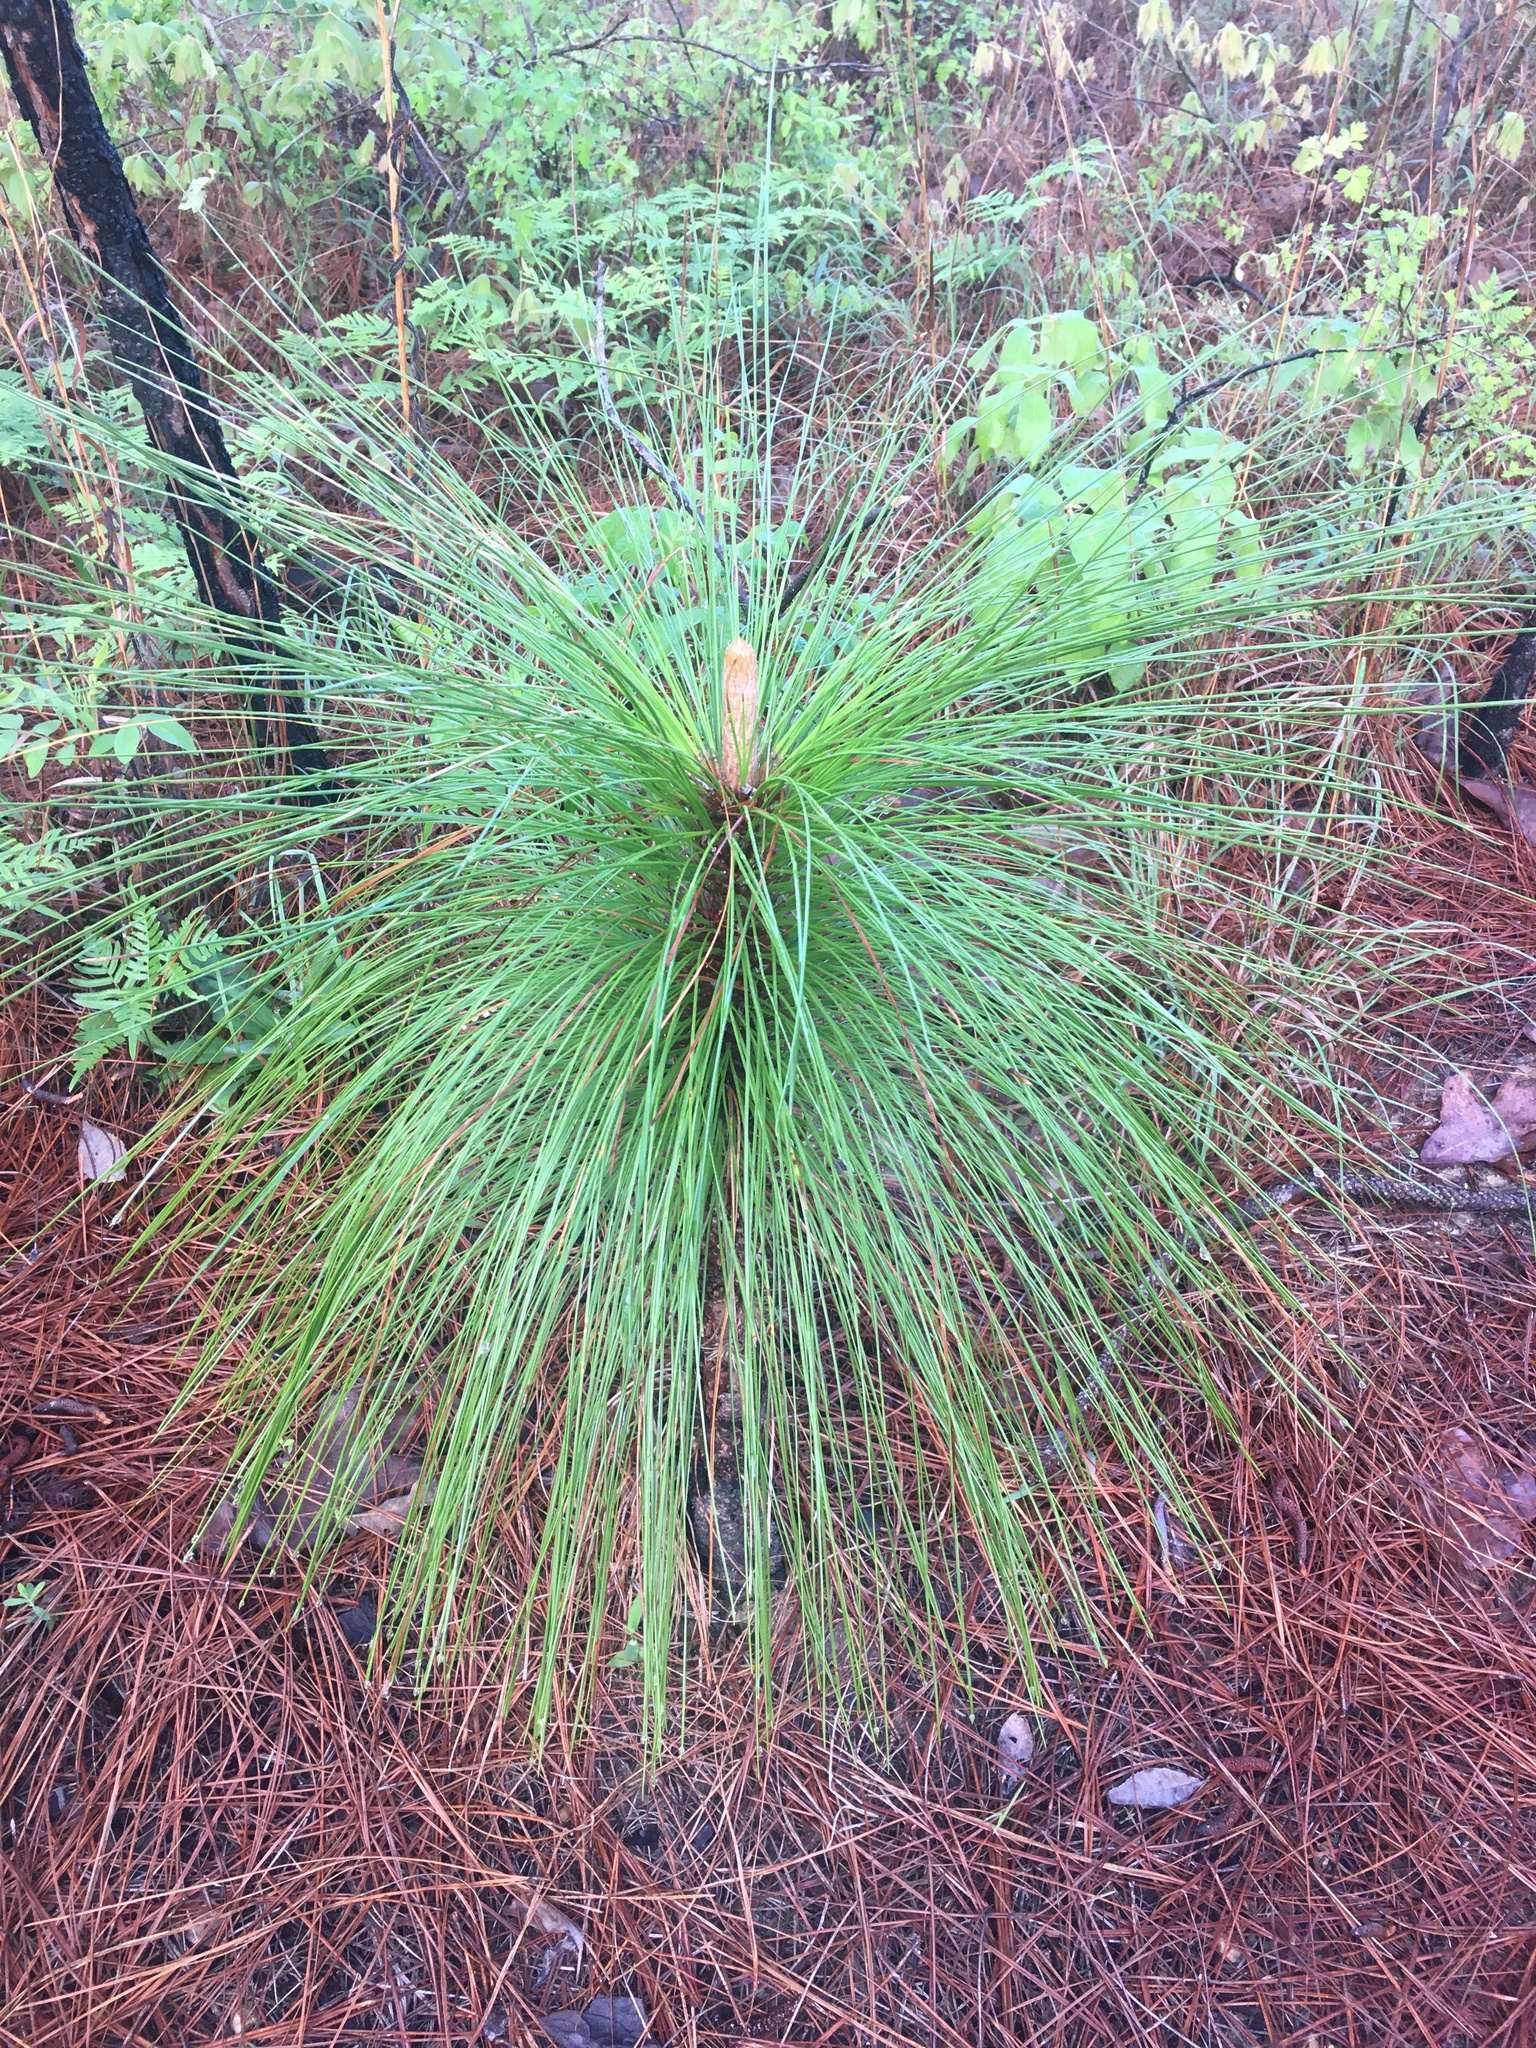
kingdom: Plantae
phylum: Tracheophyta
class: Pinopsida
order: Pinales
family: Pinaceae
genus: Pinus
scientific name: Pinus palustris
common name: Longleaf pine
